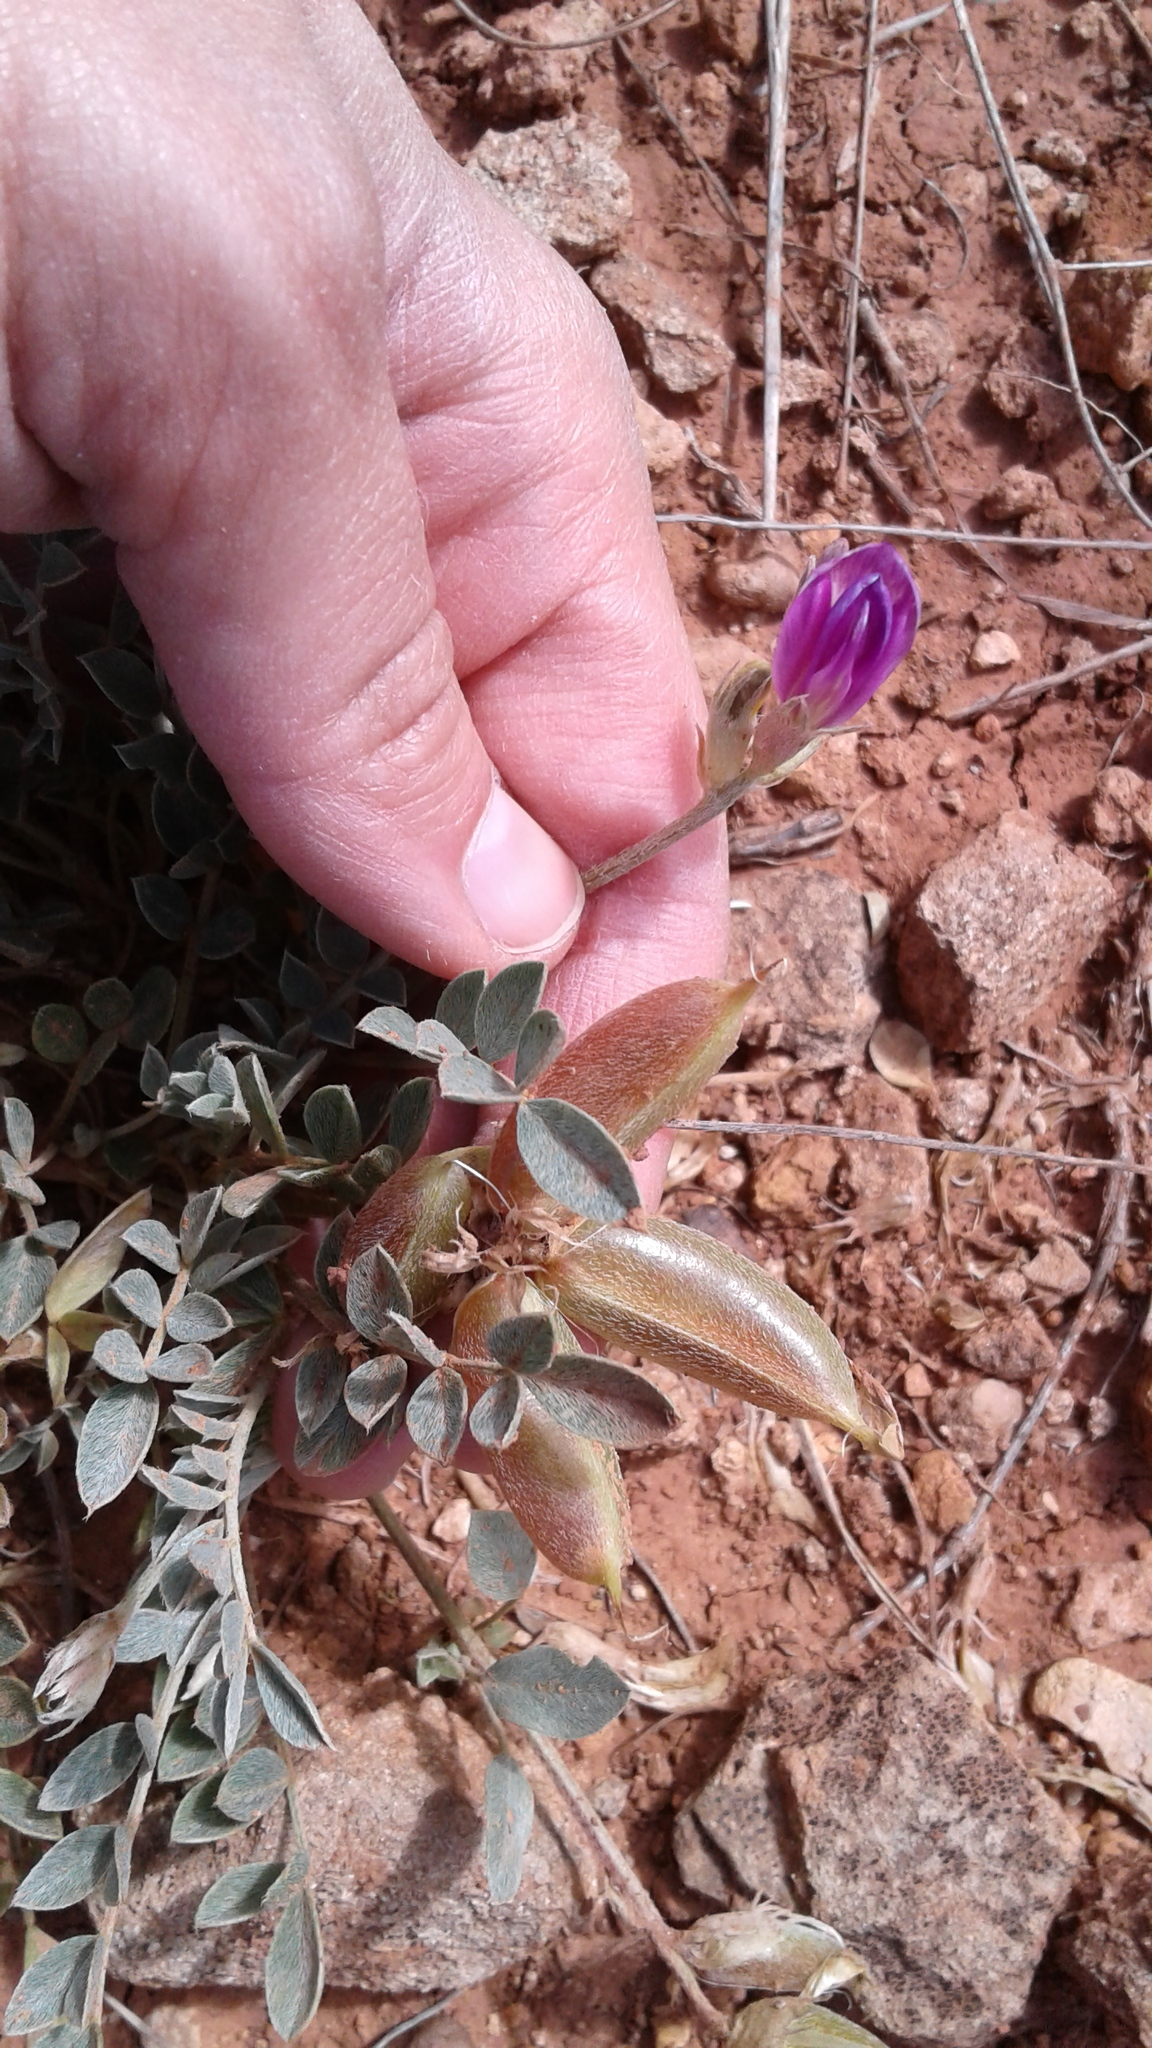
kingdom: Plantae
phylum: Tracheophyta
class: Magnoliopsida
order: Fabales
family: Fabaceae
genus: Astragalus
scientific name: Astragalus missouriensis
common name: Missouri milk-vetch
